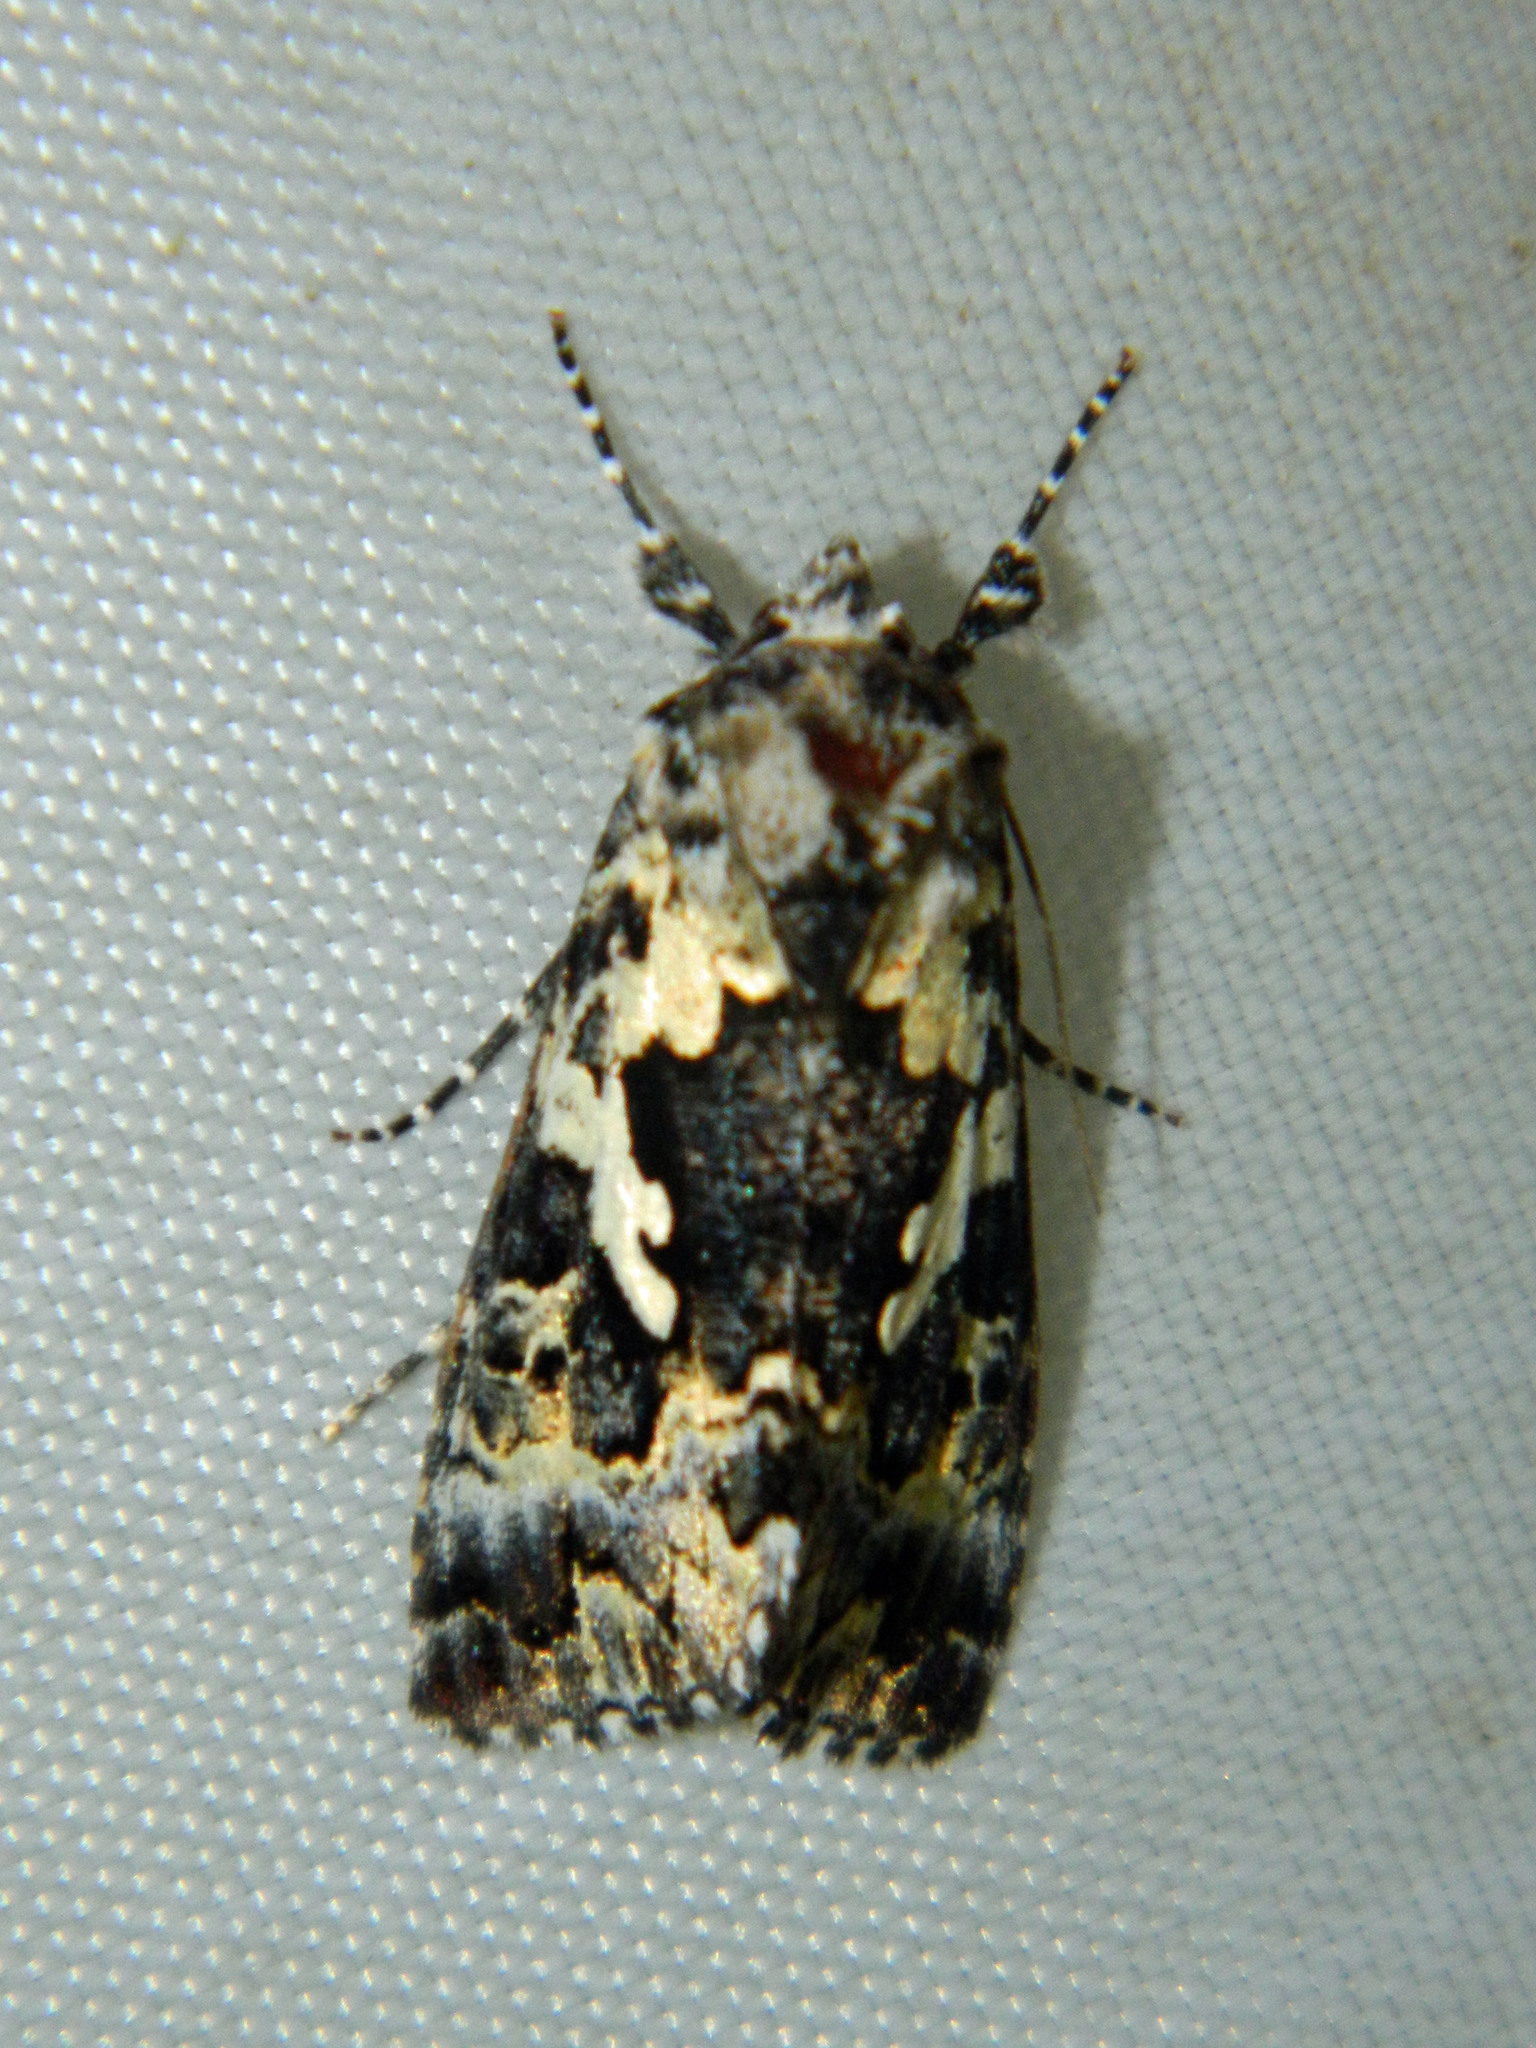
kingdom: Animalia
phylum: Arthropoda
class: Insecta
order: Lepidoptera
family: Noctuidae
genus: Syngrapha
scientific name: Syngrapha rectangula
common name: Angulated cutworm
